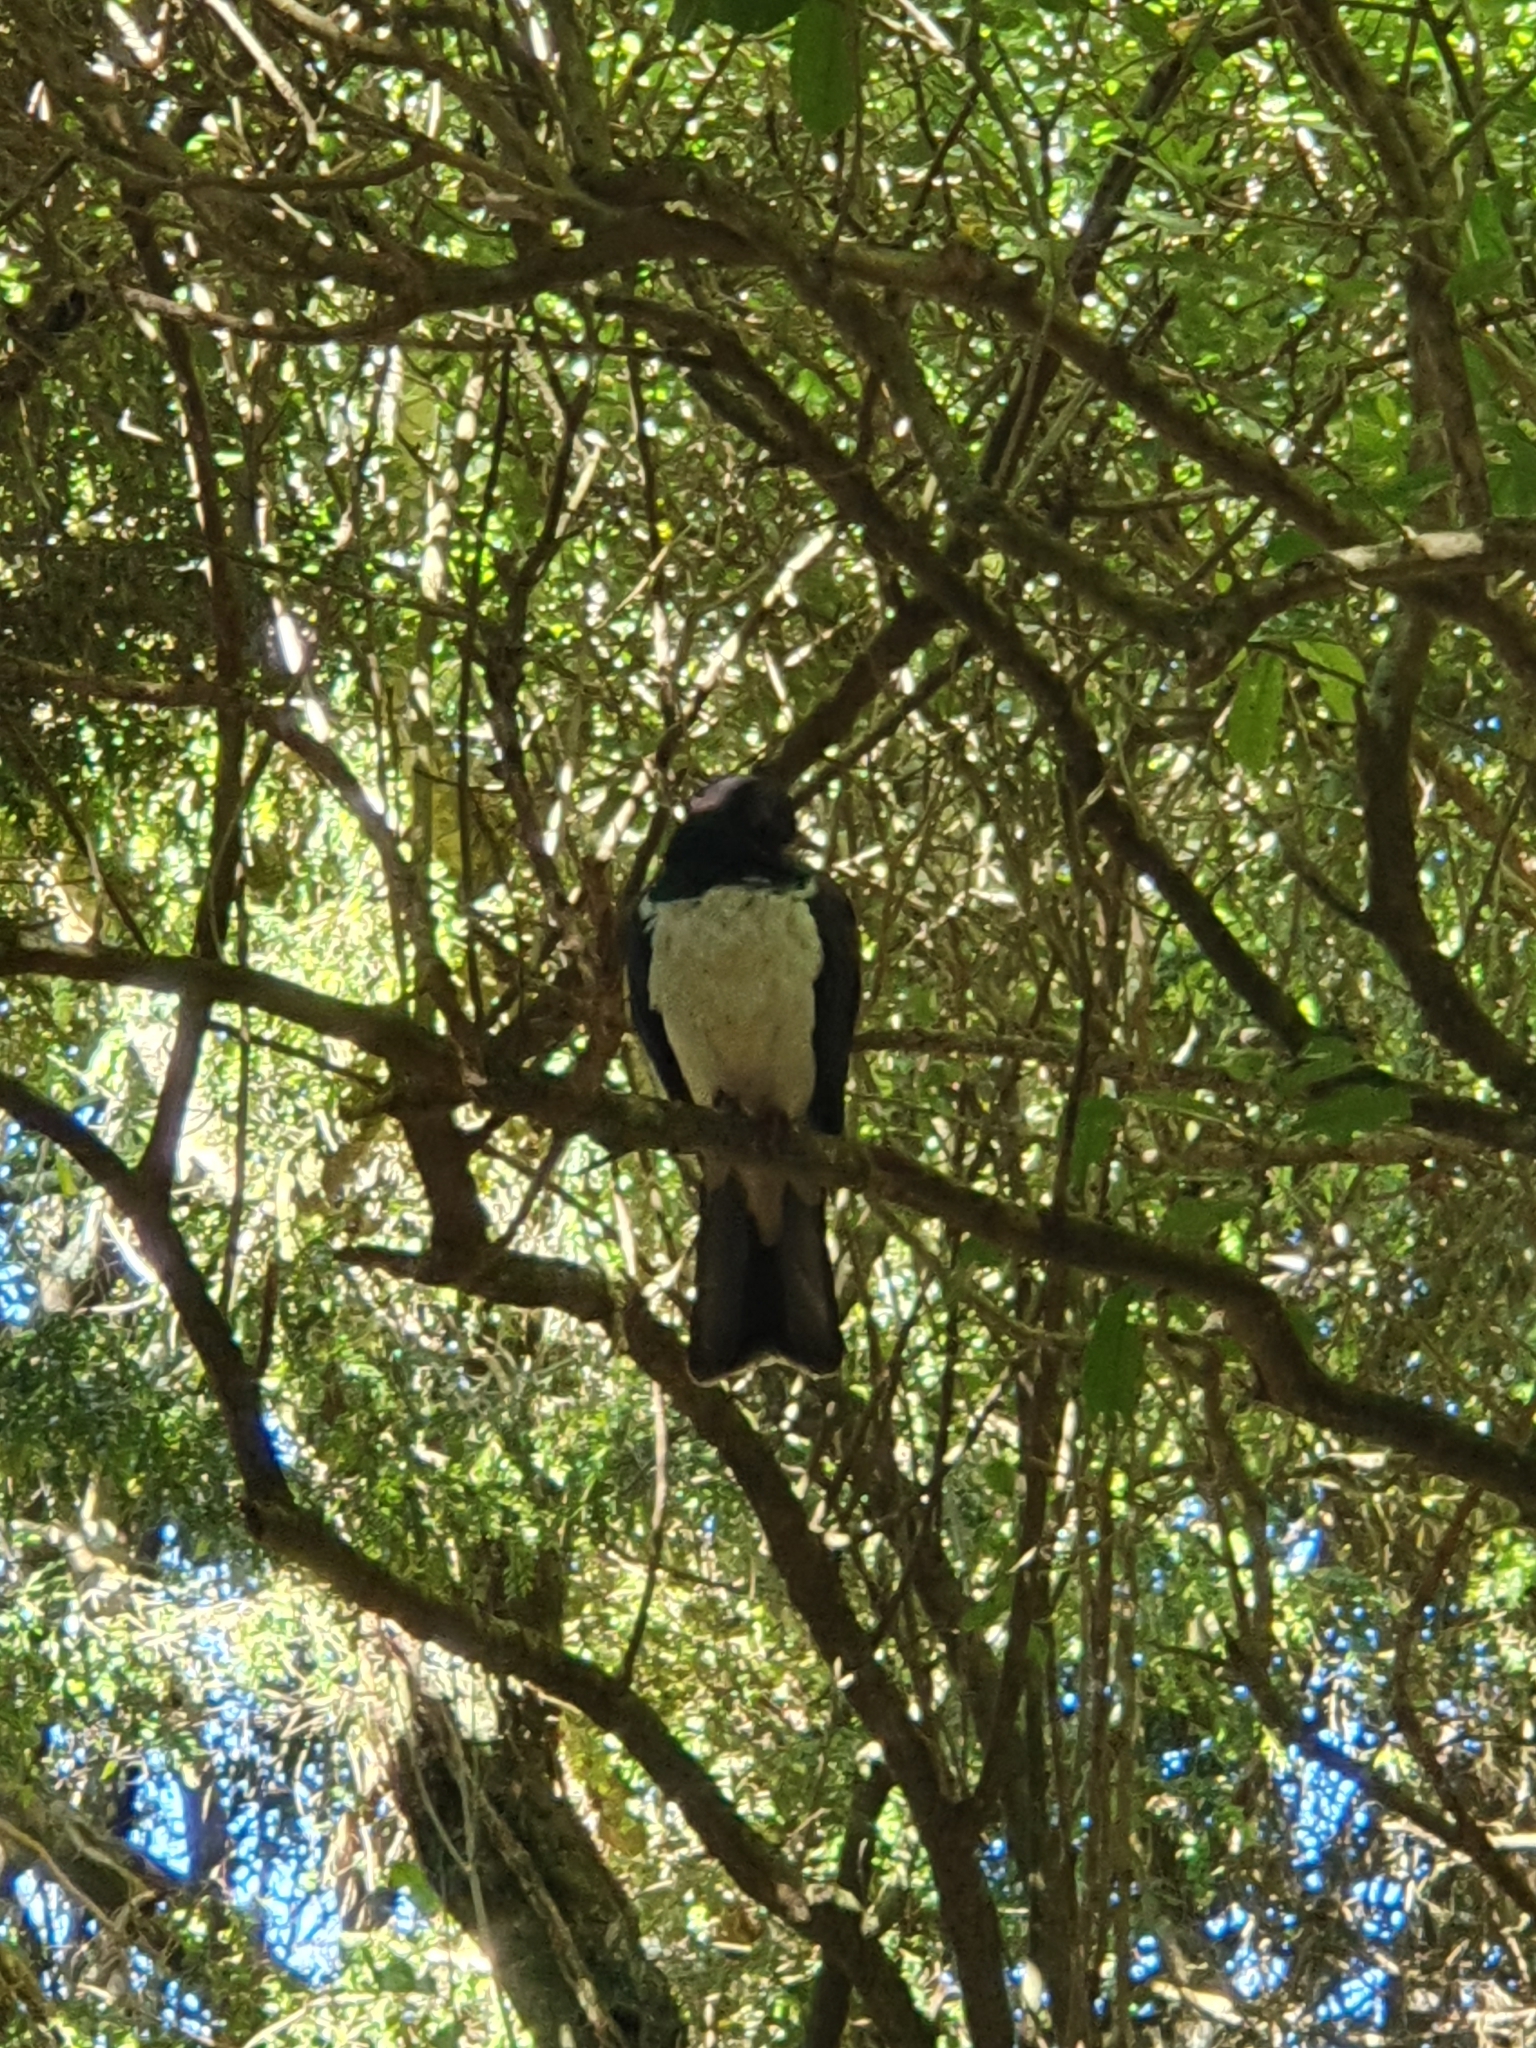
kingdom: Animalia
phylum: Chordata
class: Aves
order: Columbiformes
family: Columbidae
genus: Hemiphaga
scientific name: Hemiphaga novaeseelandiae
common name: New zealand pigeon
